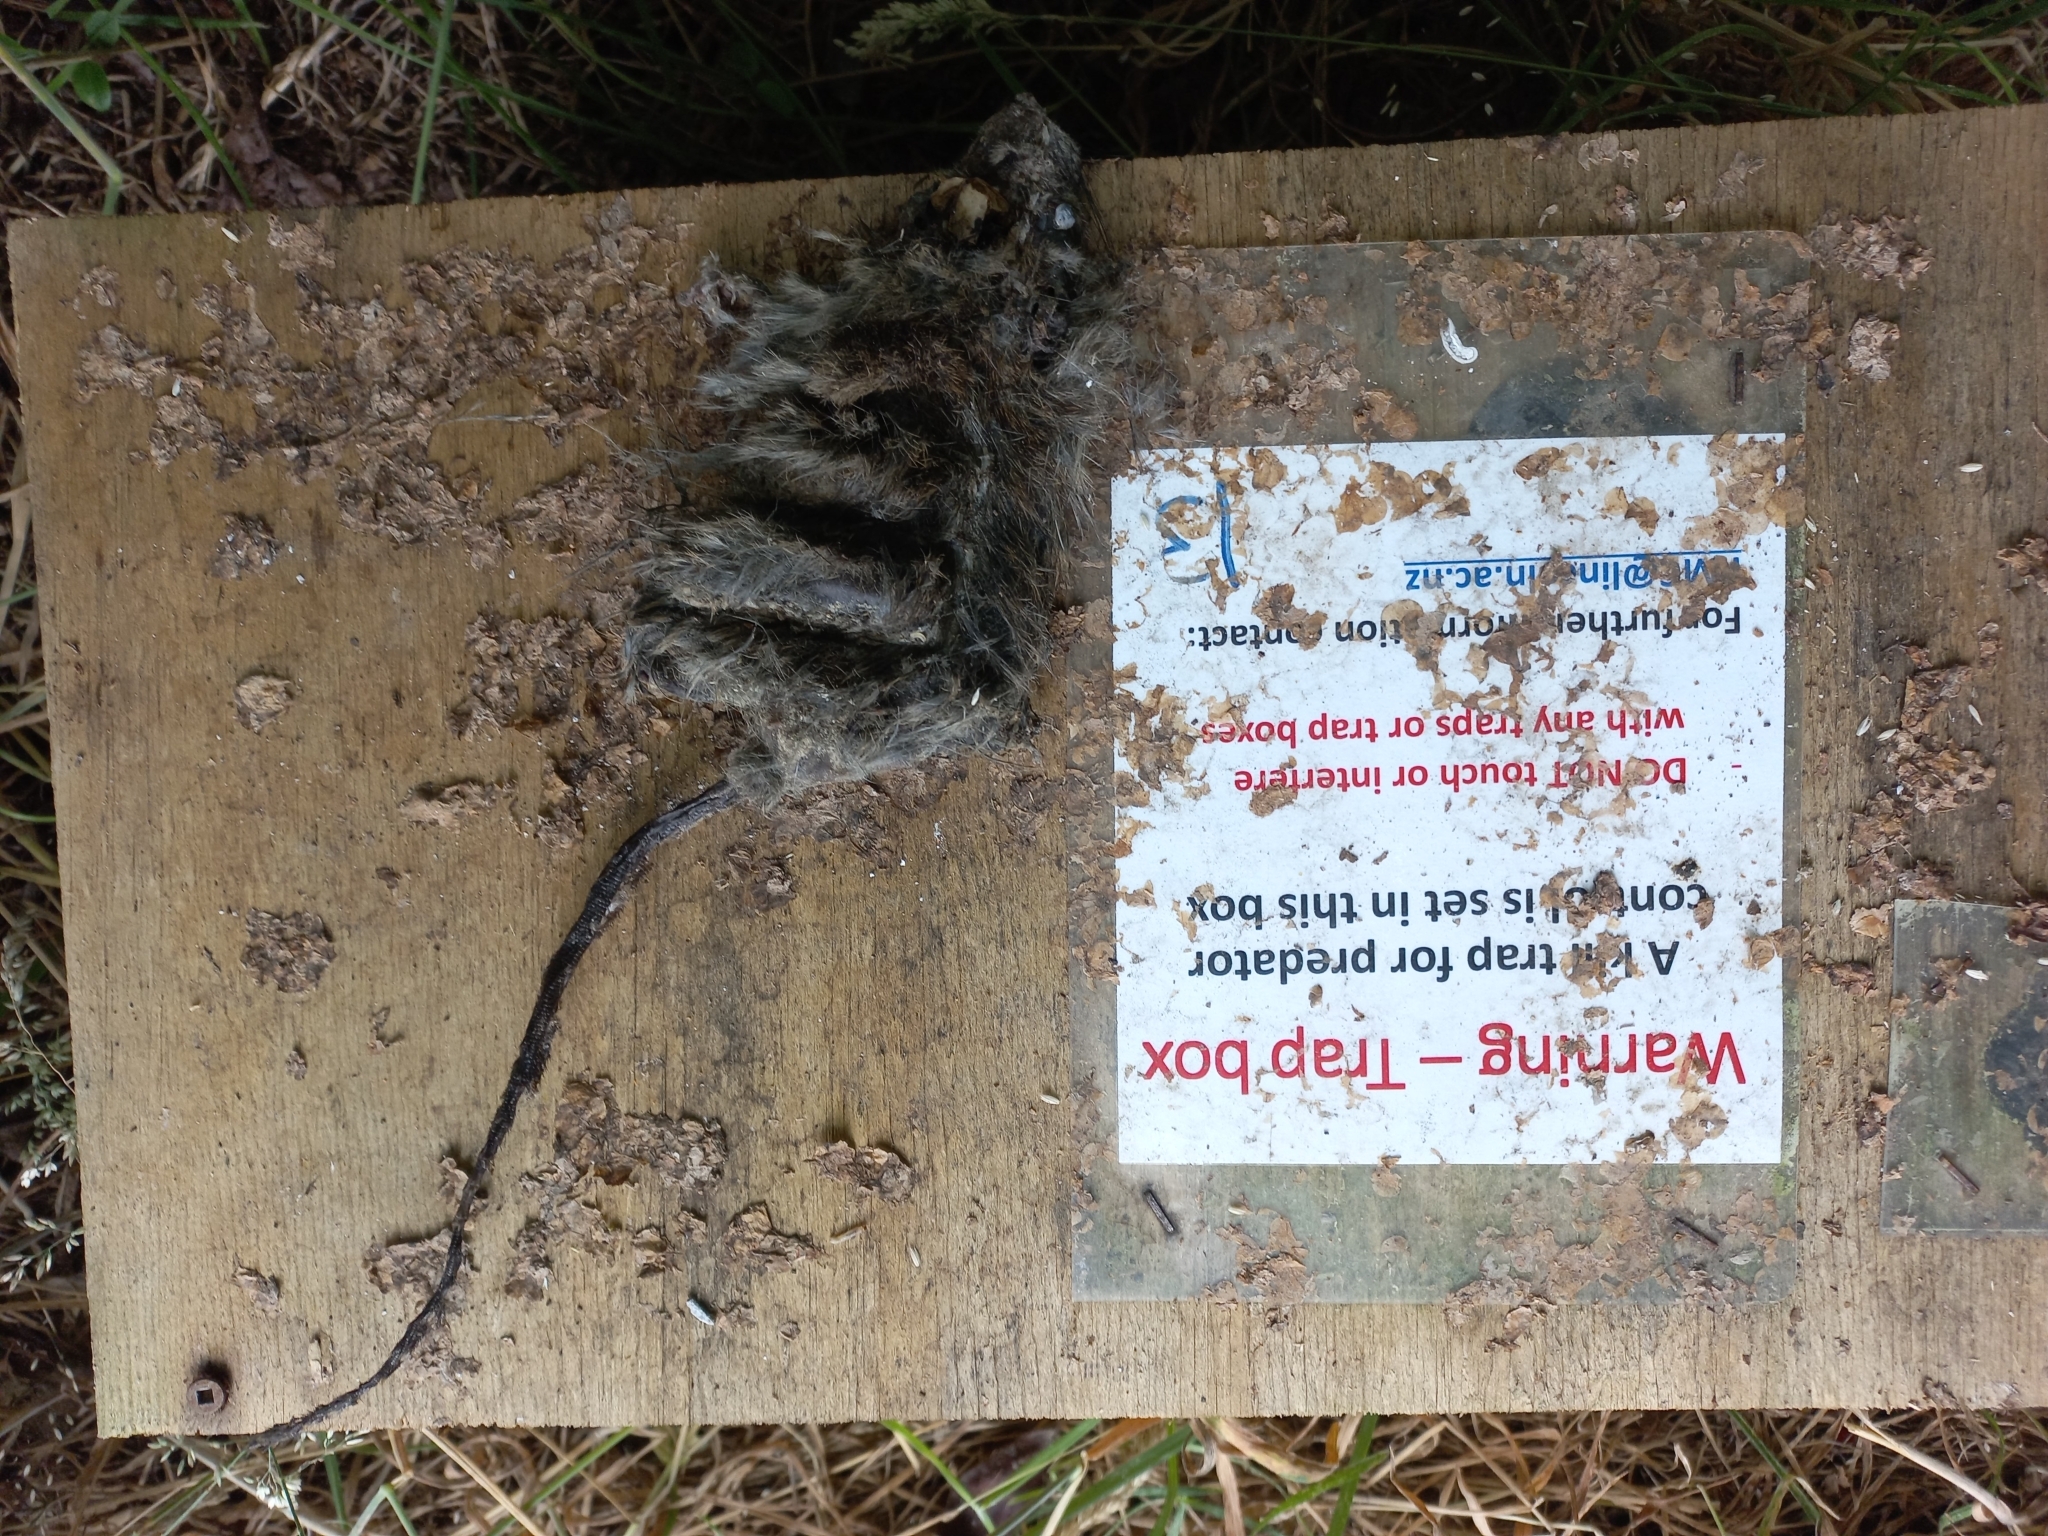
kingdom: Animalia
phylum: Chordata
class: Mammalia
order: Rodentia
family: Muridae
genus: Rattus
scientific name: Rattus rattus
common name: Black rat
